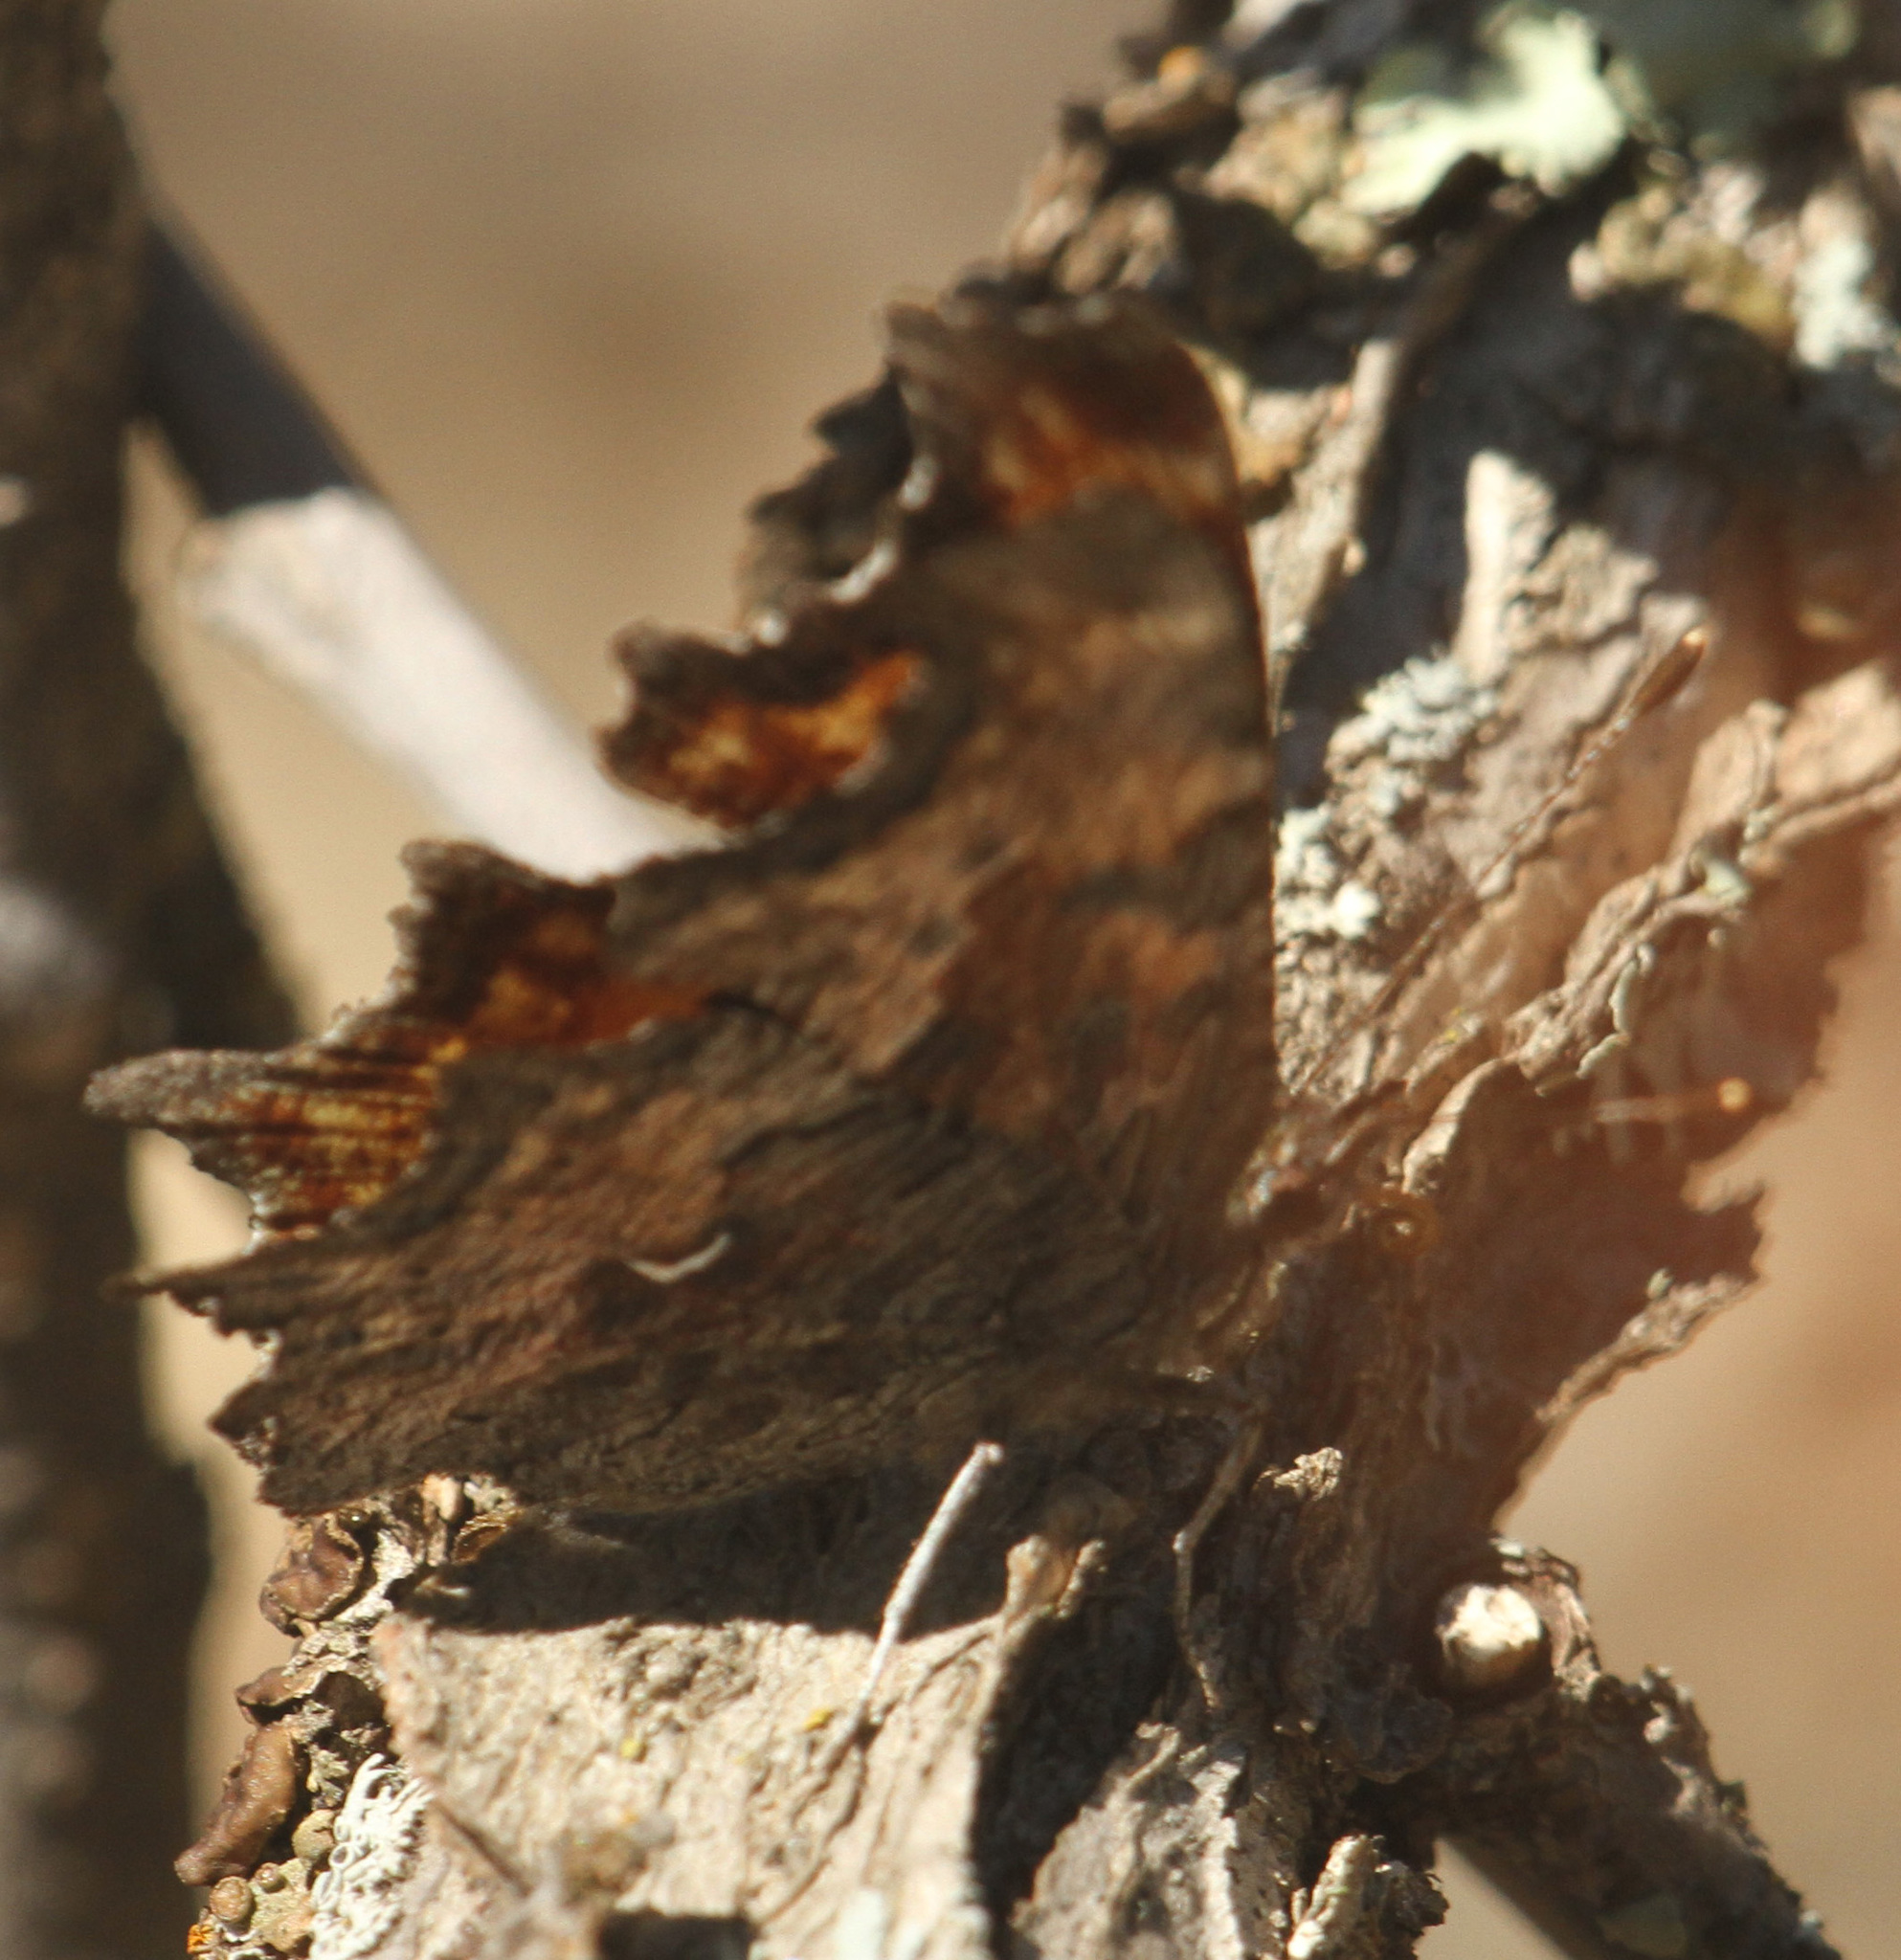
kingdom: Animalia
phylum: Arthropoda
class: Insecta
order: Lepidoptera
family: Nymphalidae
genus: Polygonia
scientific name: Polygonia gracilis
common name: Hoary comma
